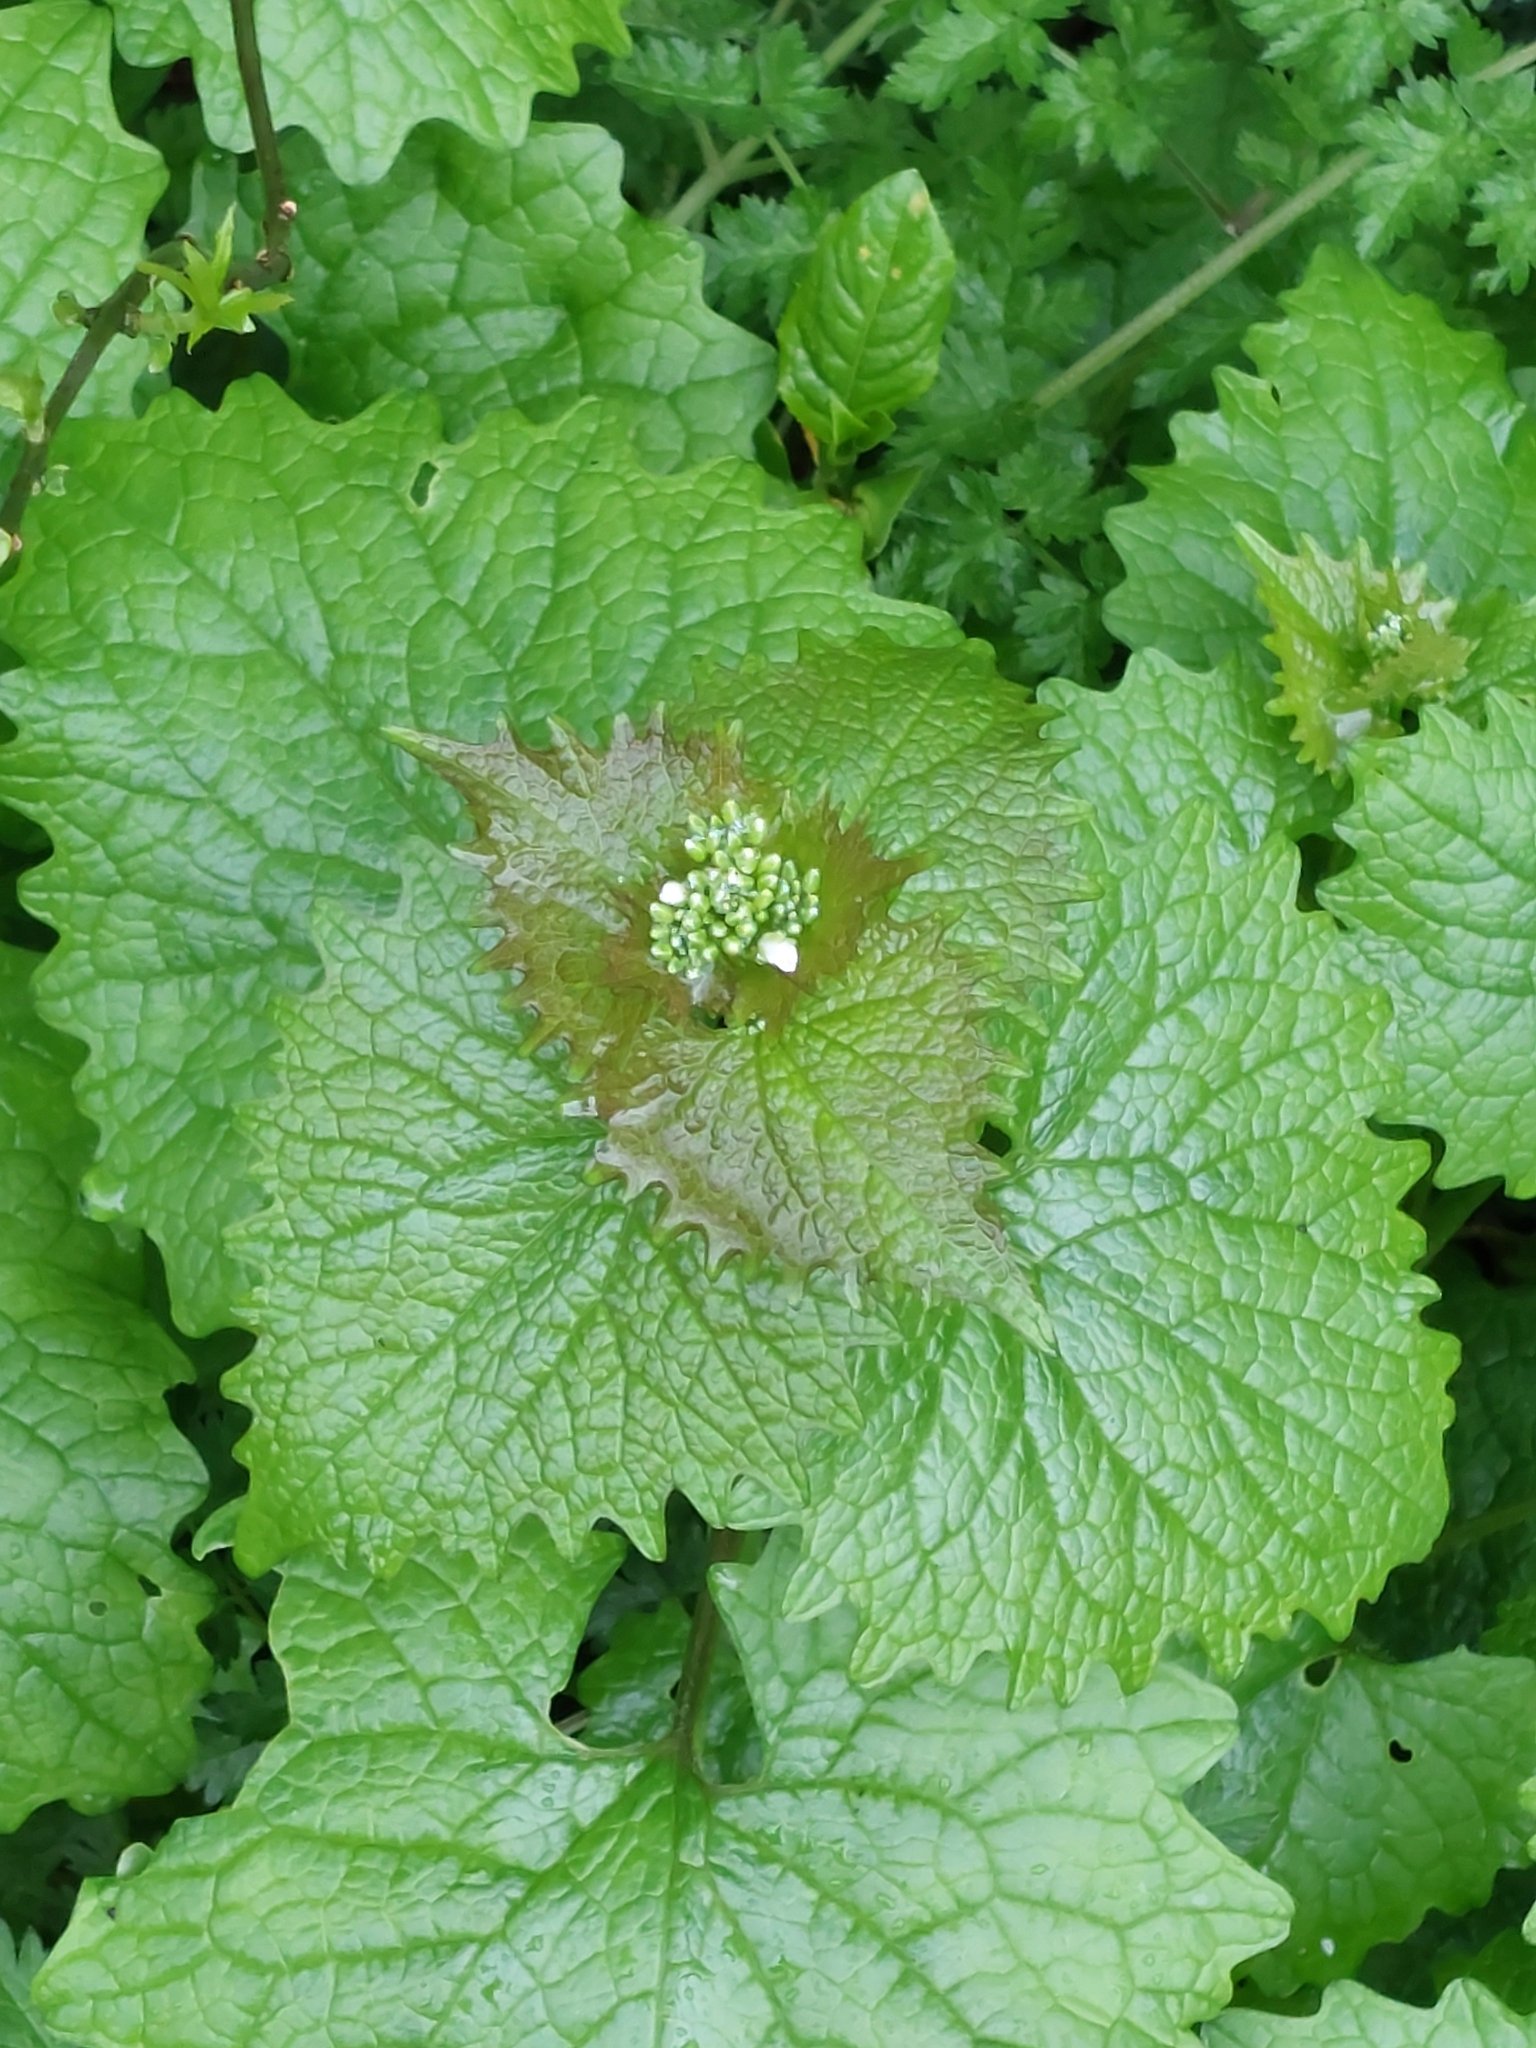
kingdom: Plantae
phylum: Tracheophyta
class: Magnoliopsida
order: Brassicales
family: Brassicaceae
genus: Alliaria
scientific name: Alliaria petiolata
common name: Garlic mustard
